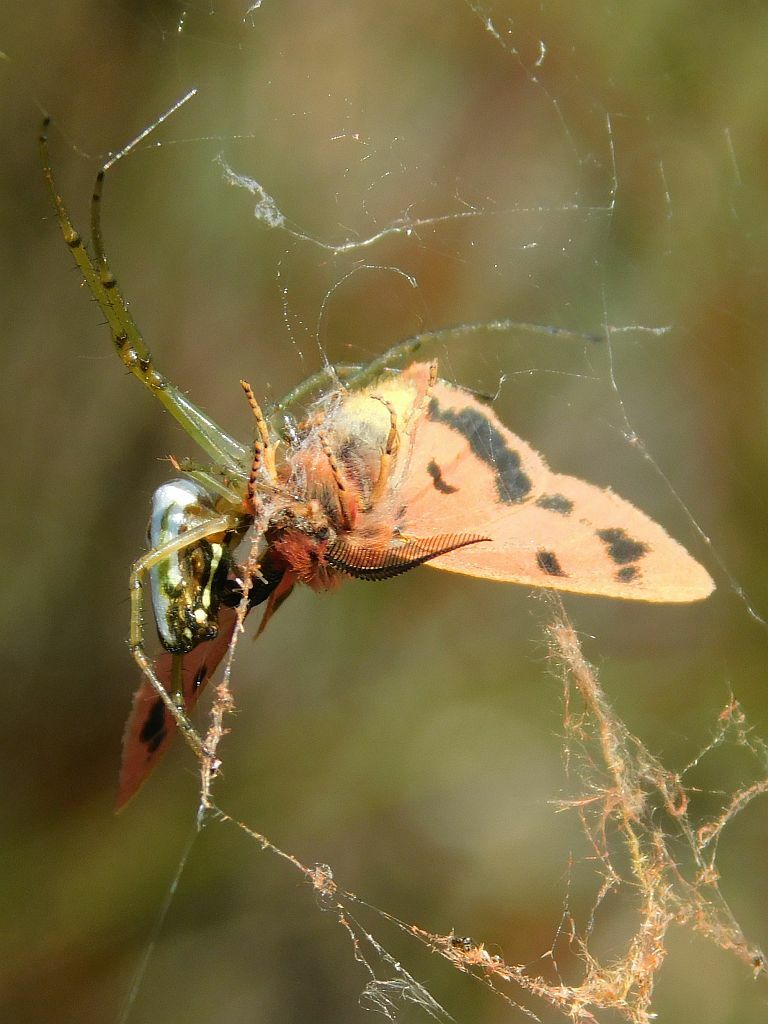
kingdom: Animalia
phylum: Arthropoda
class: Arachnida
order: Araneae
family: Tetragnathidae
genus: Leucauge
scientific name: Leucauge festiva
